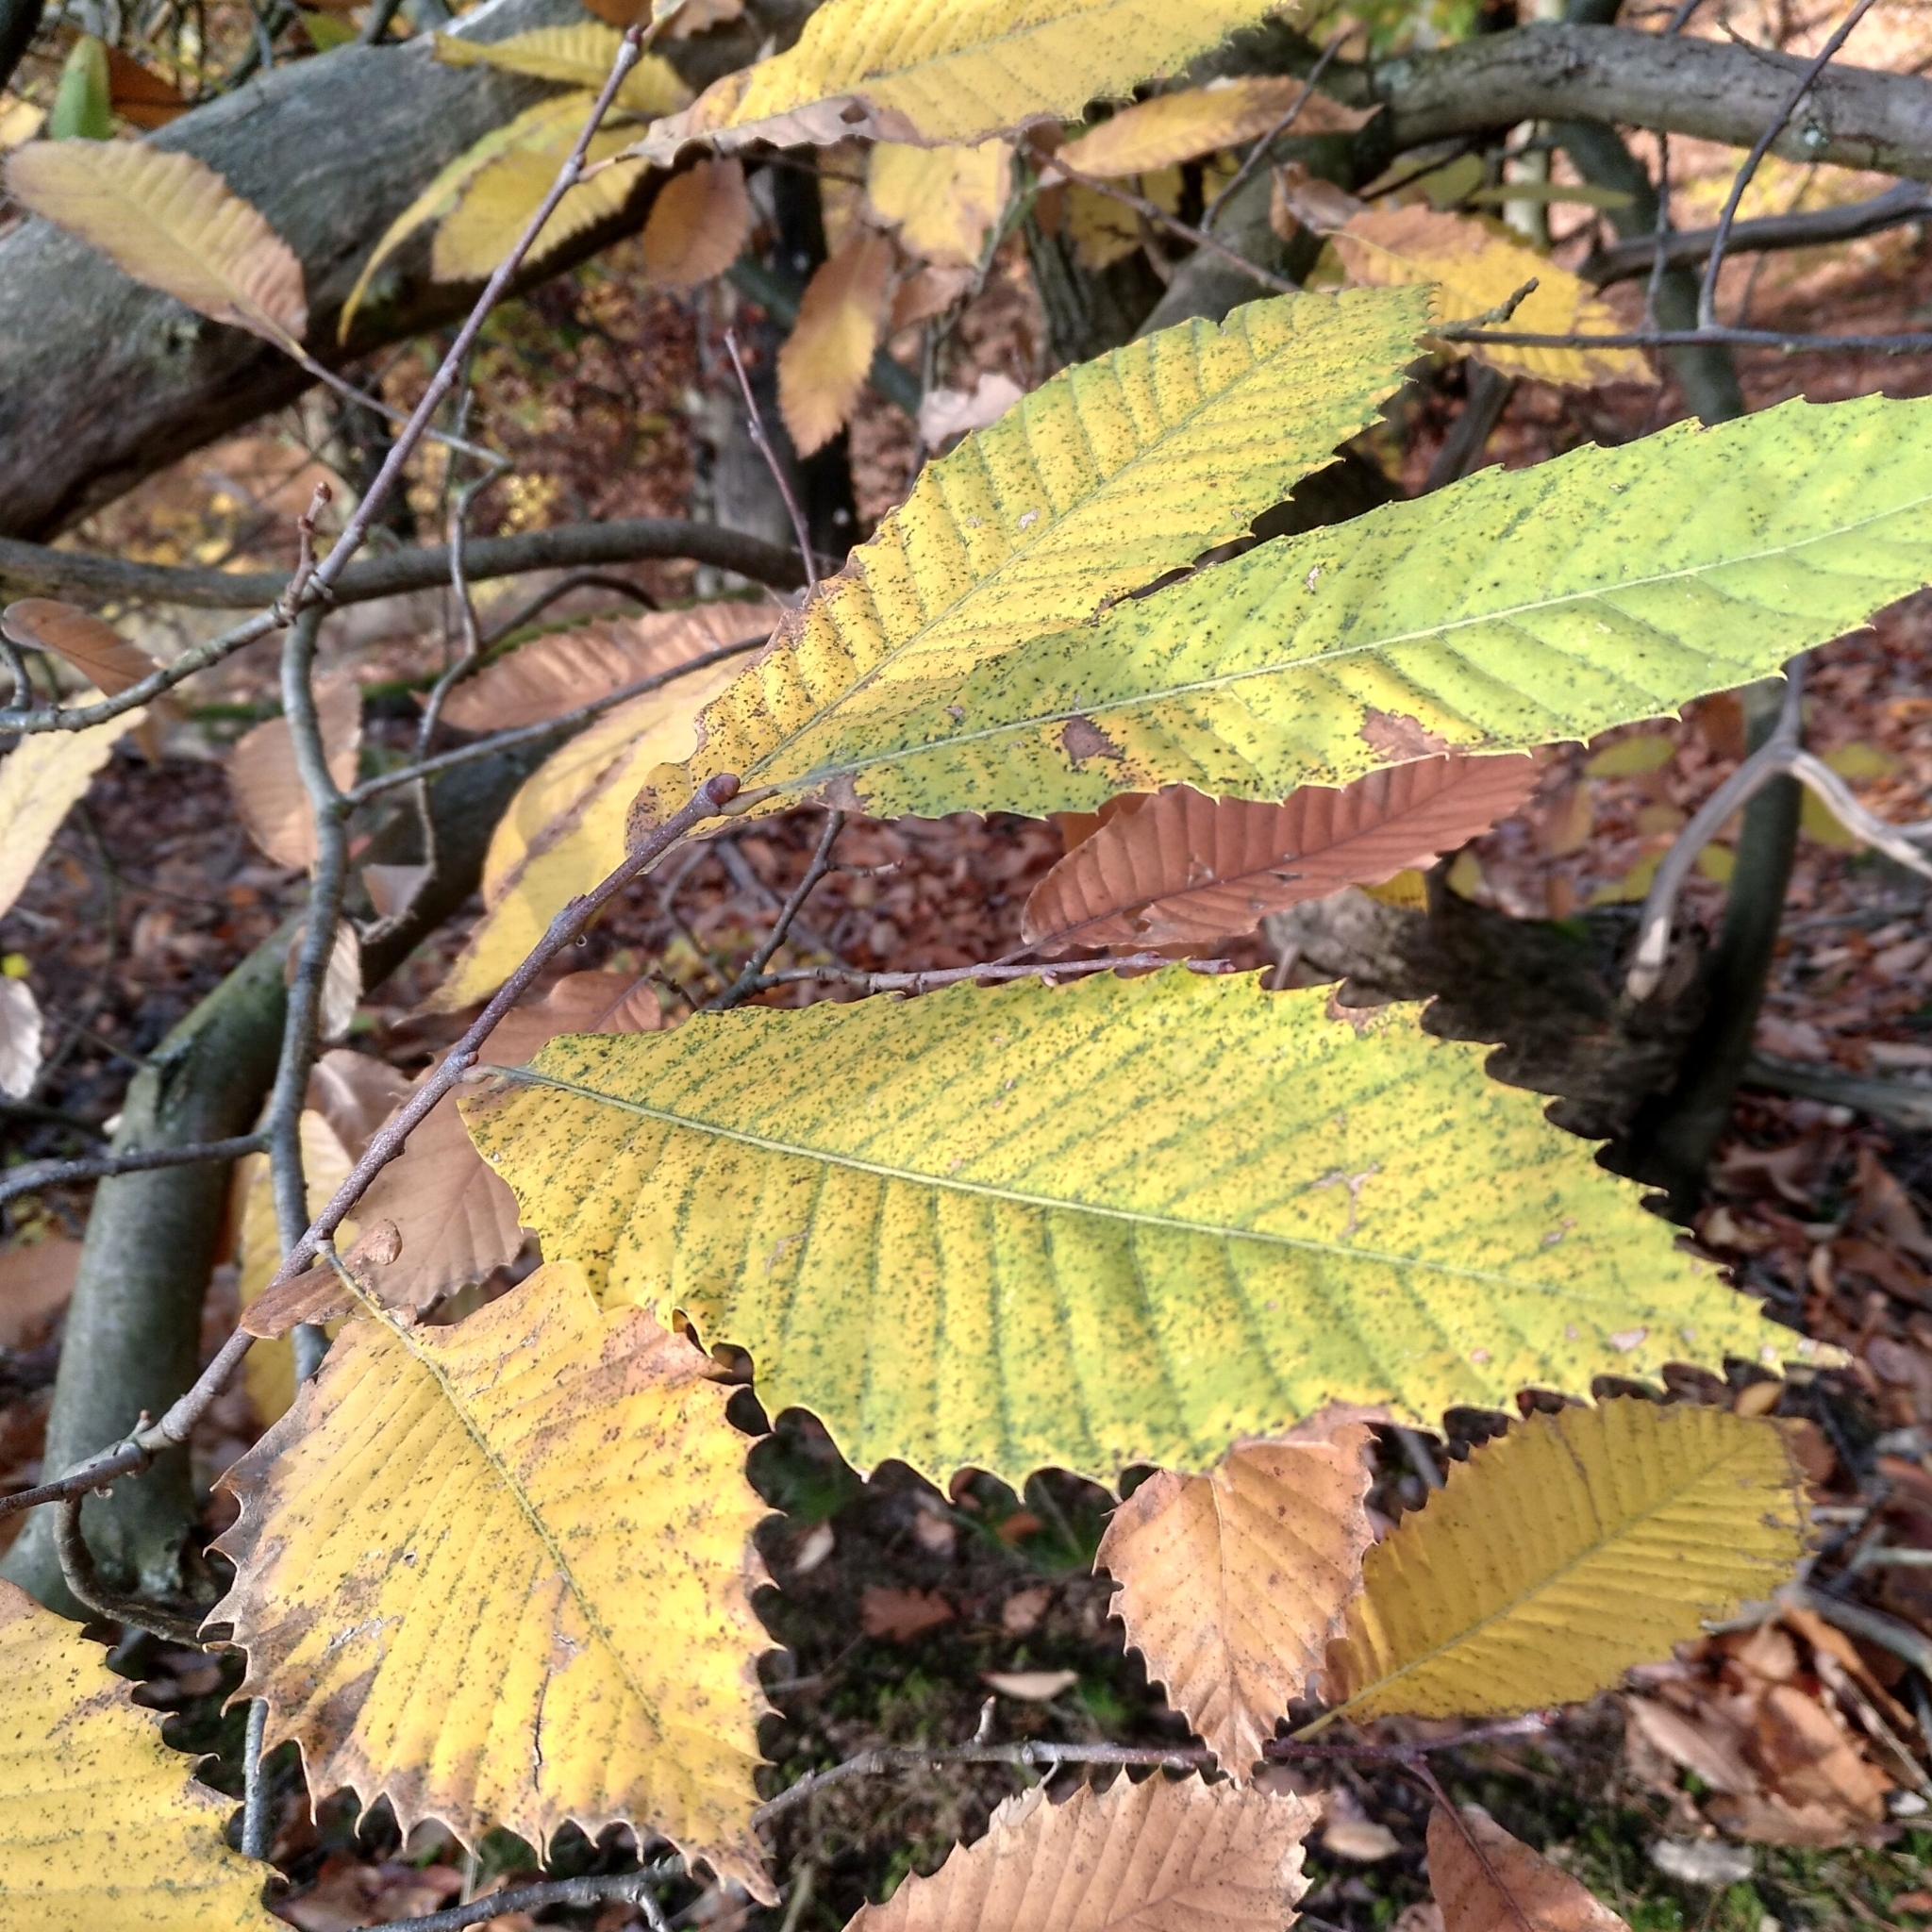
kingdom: Plantae
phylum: Tracheophyta
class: Magnoliopsida
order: Fagales
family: Fagaceae
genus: Castanea
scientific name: Castanea sativa
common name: Sweet chestnut
